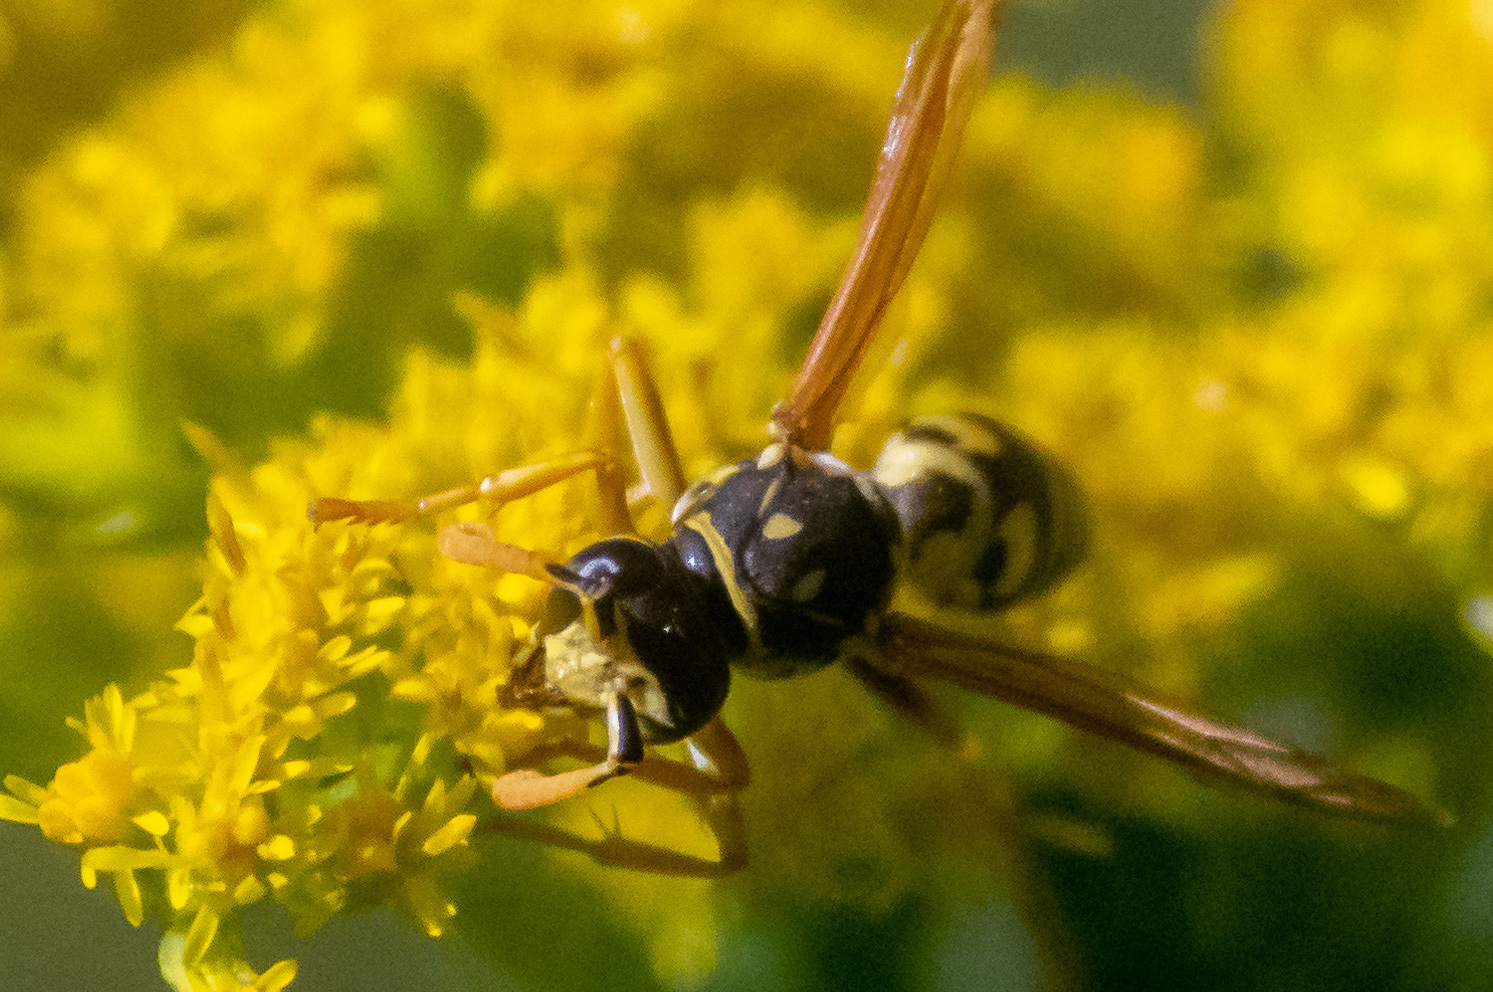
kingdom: Animalia
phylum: Arthropoda
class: Insecta
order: Hymenoptera
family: Eumenidae
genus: Polistes
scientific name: Polistes dominula
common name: Paper wasp
